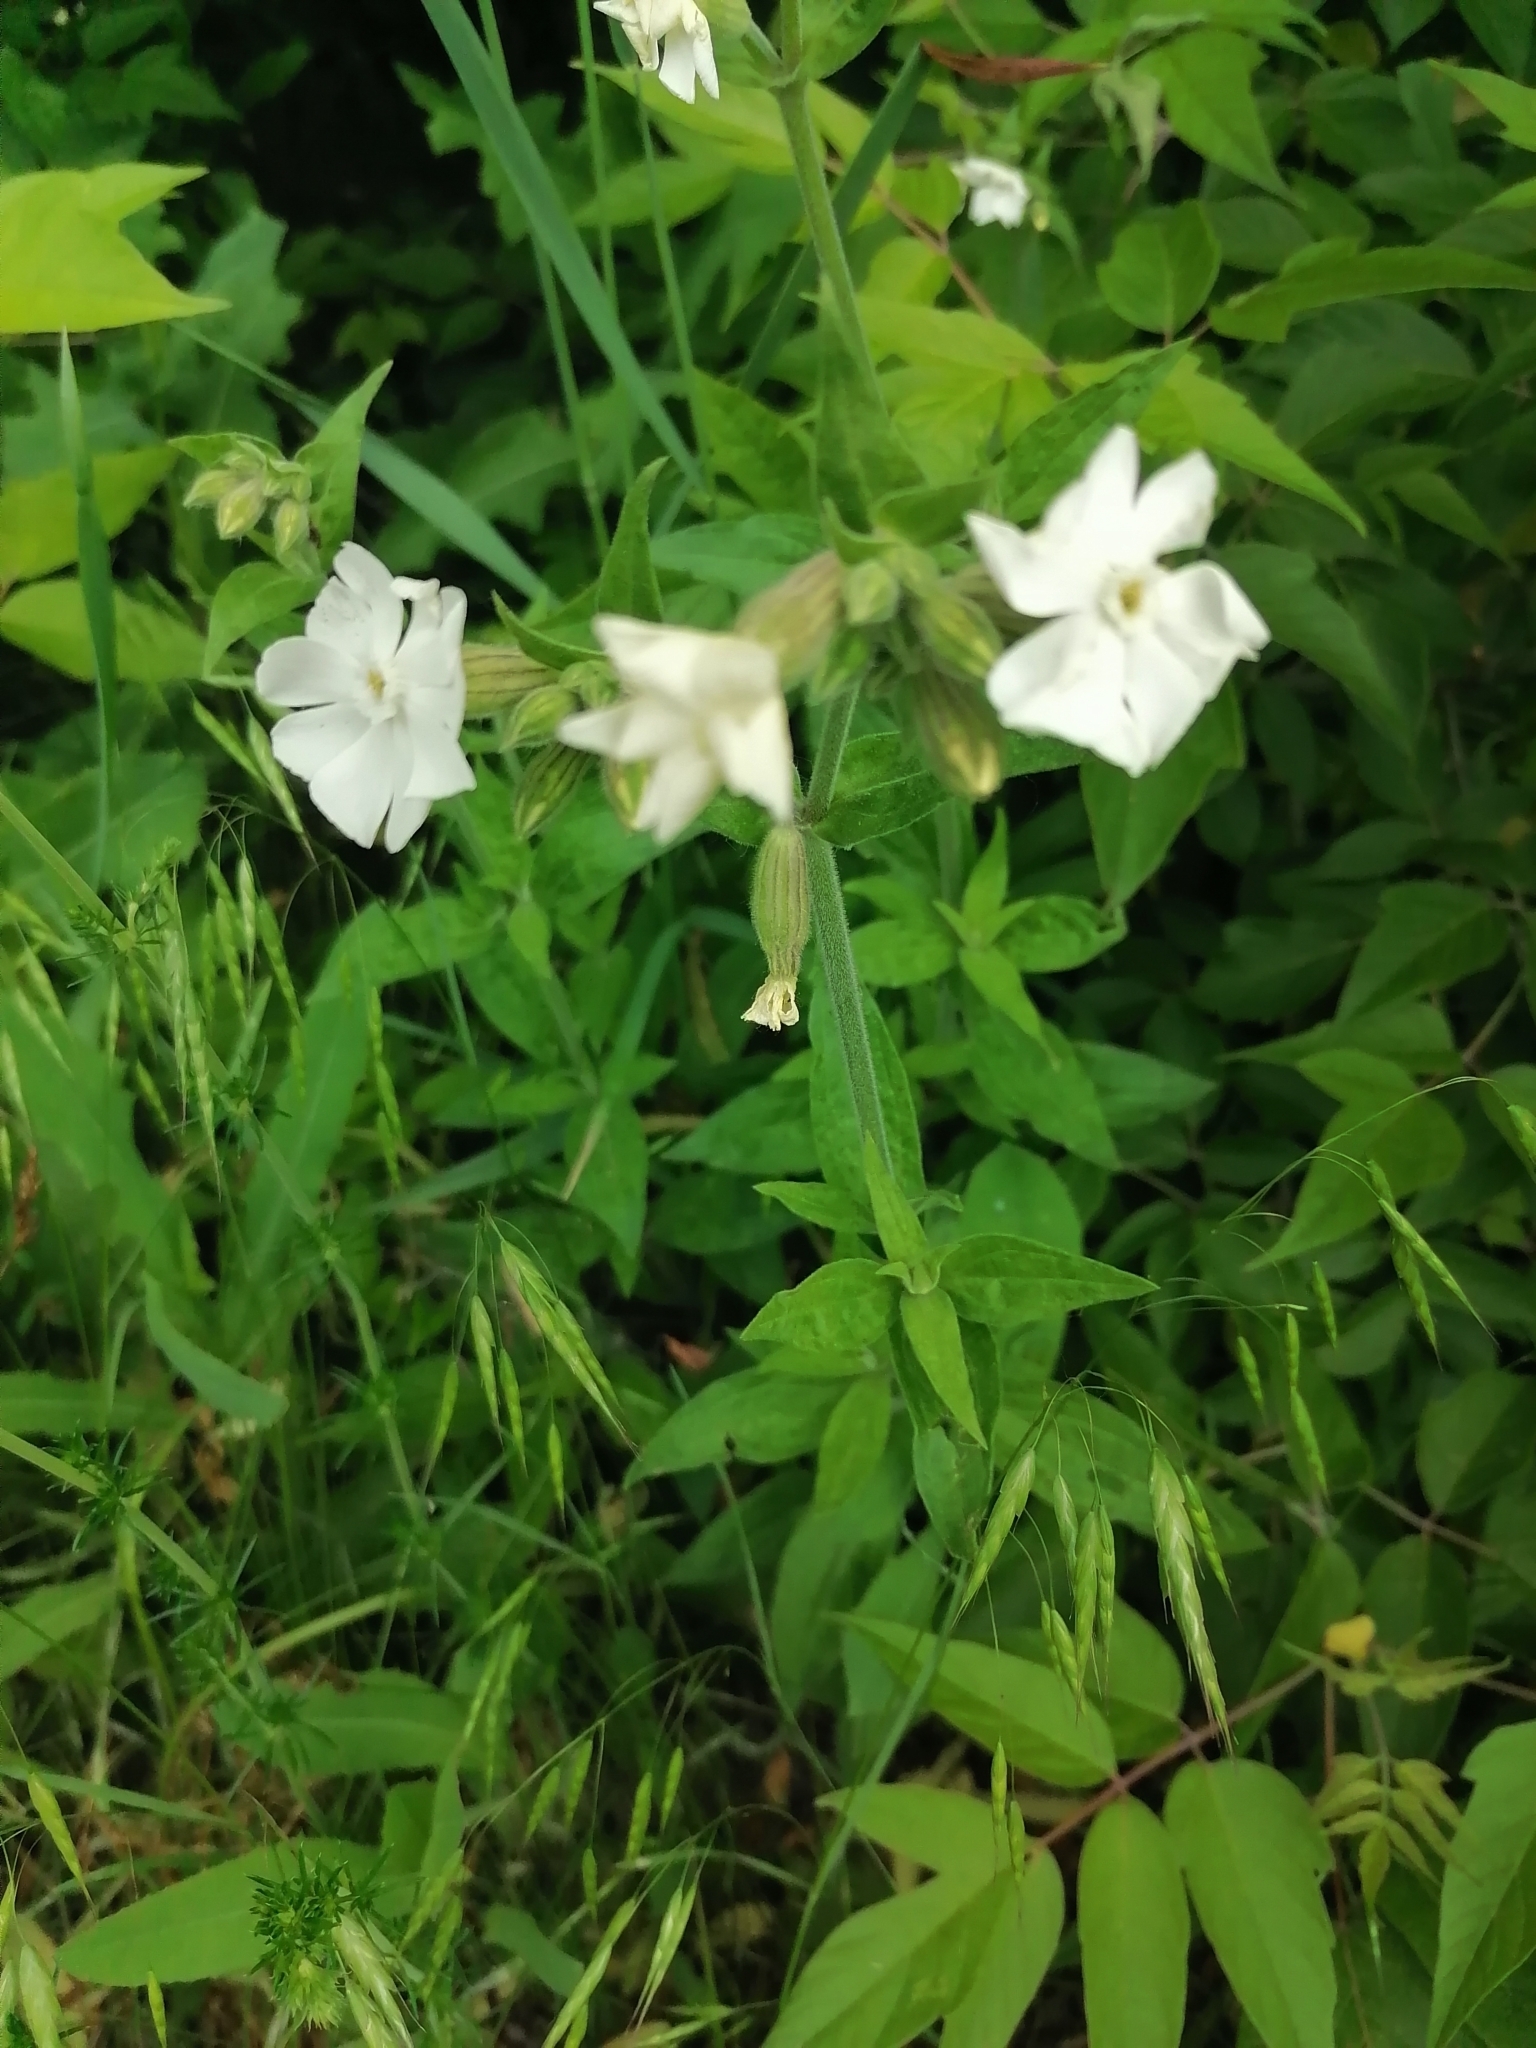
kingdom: Plantae
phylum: Tracheophyta
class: Magnoliopsida
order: Caryophyllales
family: Caryophyllaceae
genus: Silene
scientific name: Silene latifolia
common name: White campion
